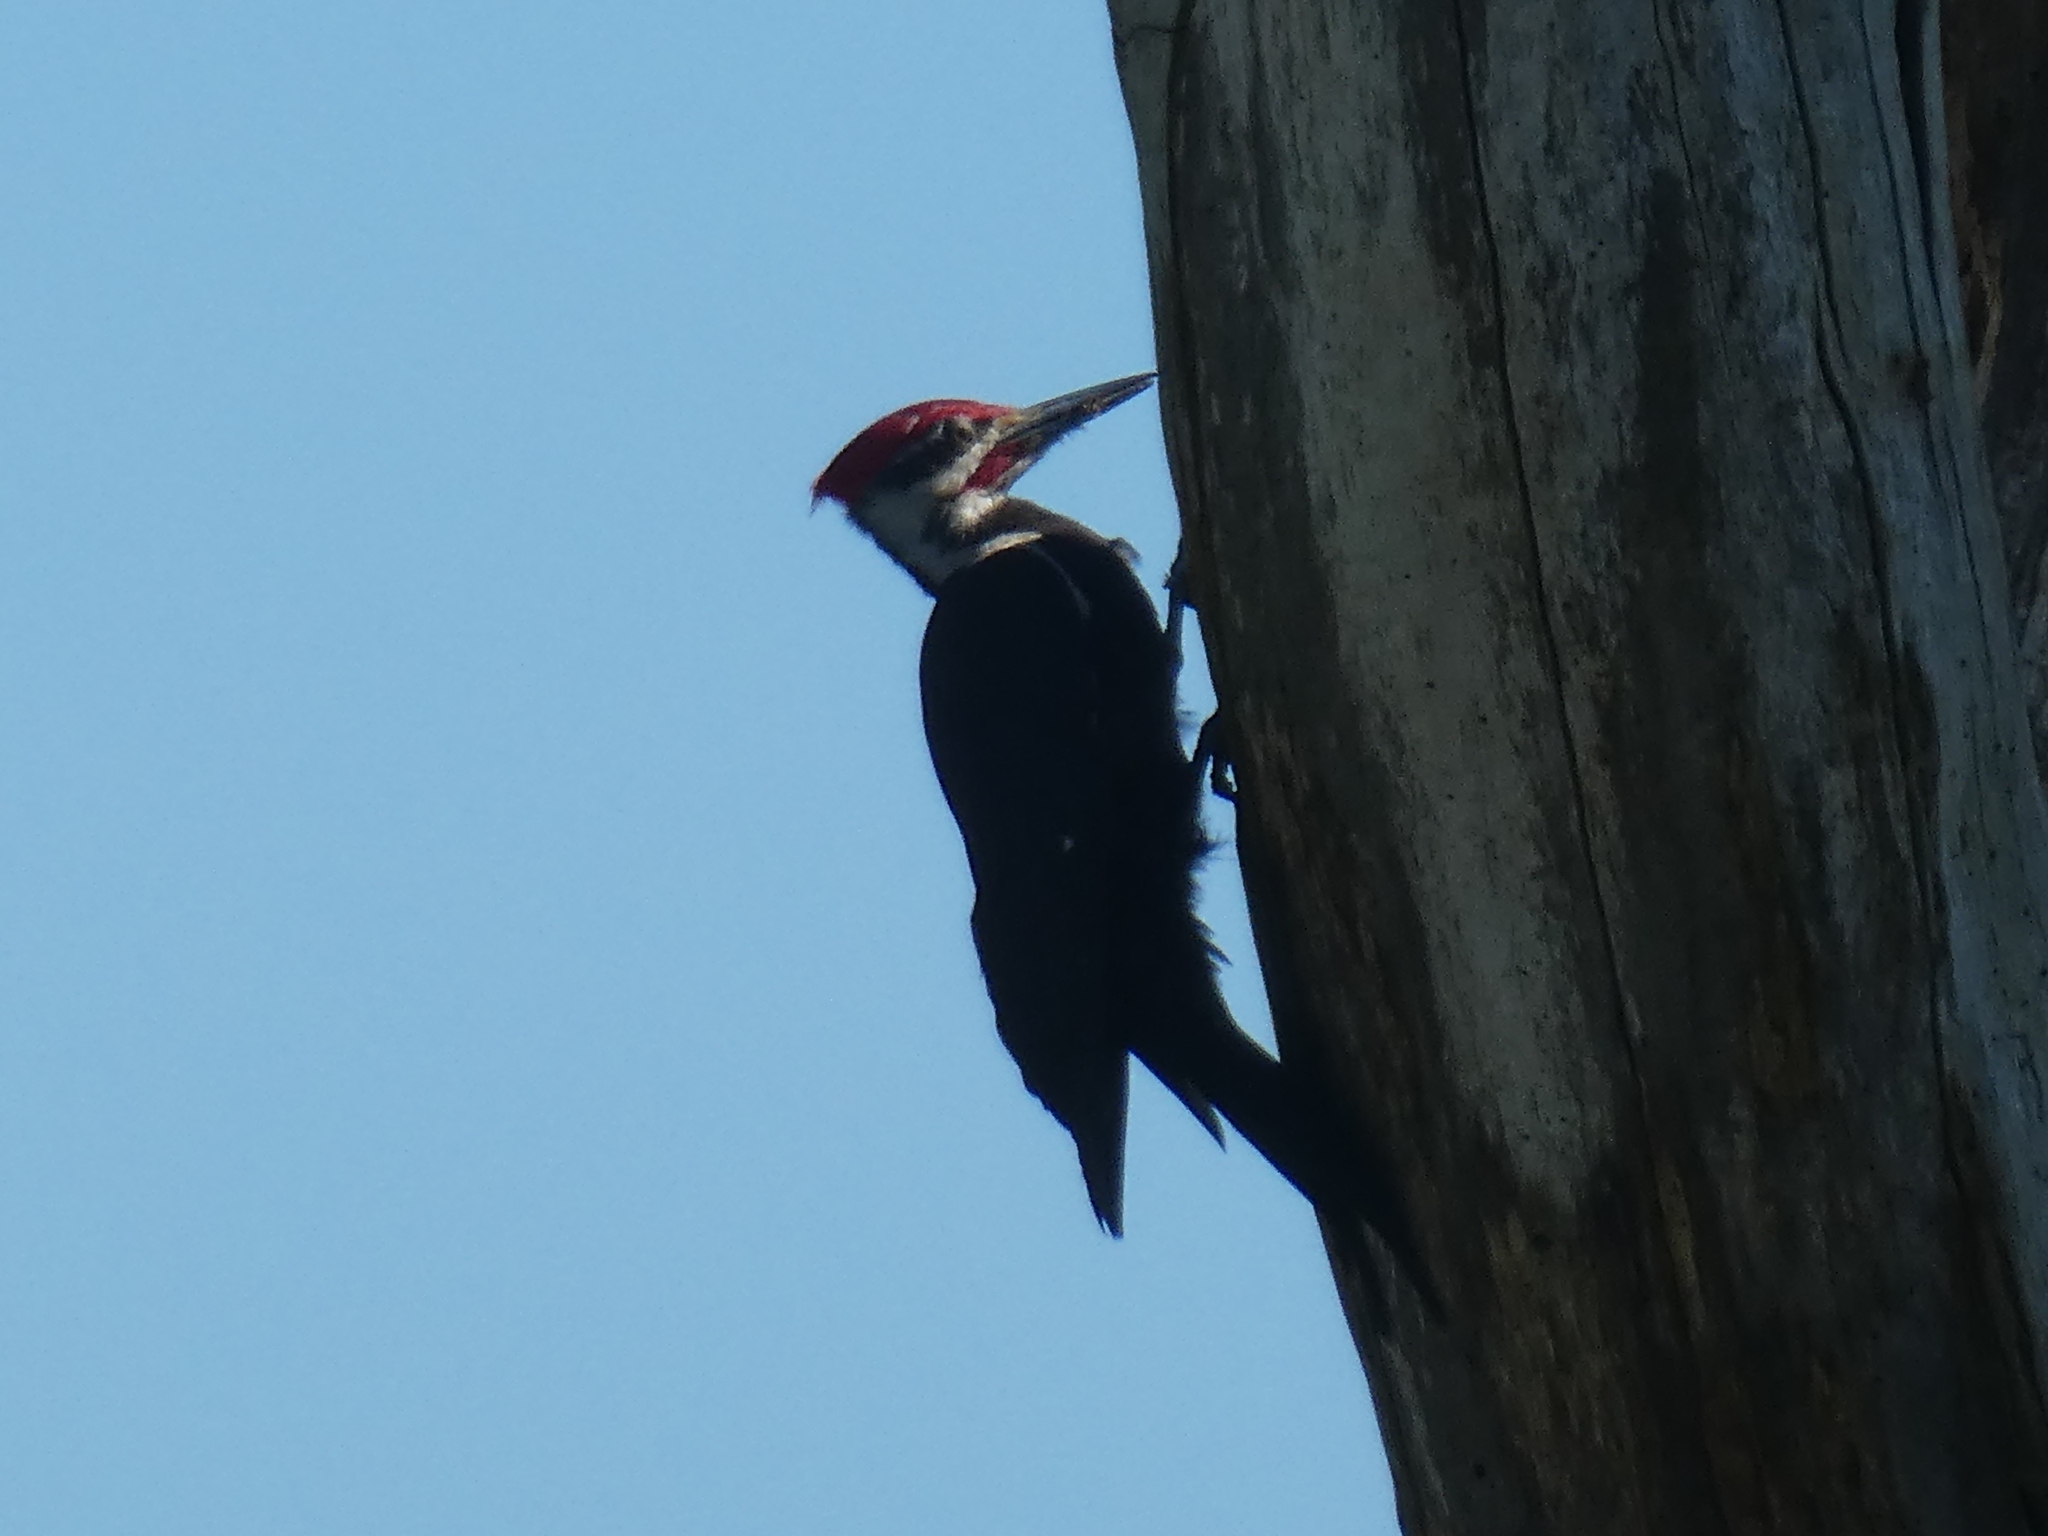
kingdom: Animalia
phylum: Chordata
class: Aves
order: Piciformes
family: Picidae
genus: Dryocopus
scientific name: Dryocopus pileatus
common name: Pileated woodpecker
